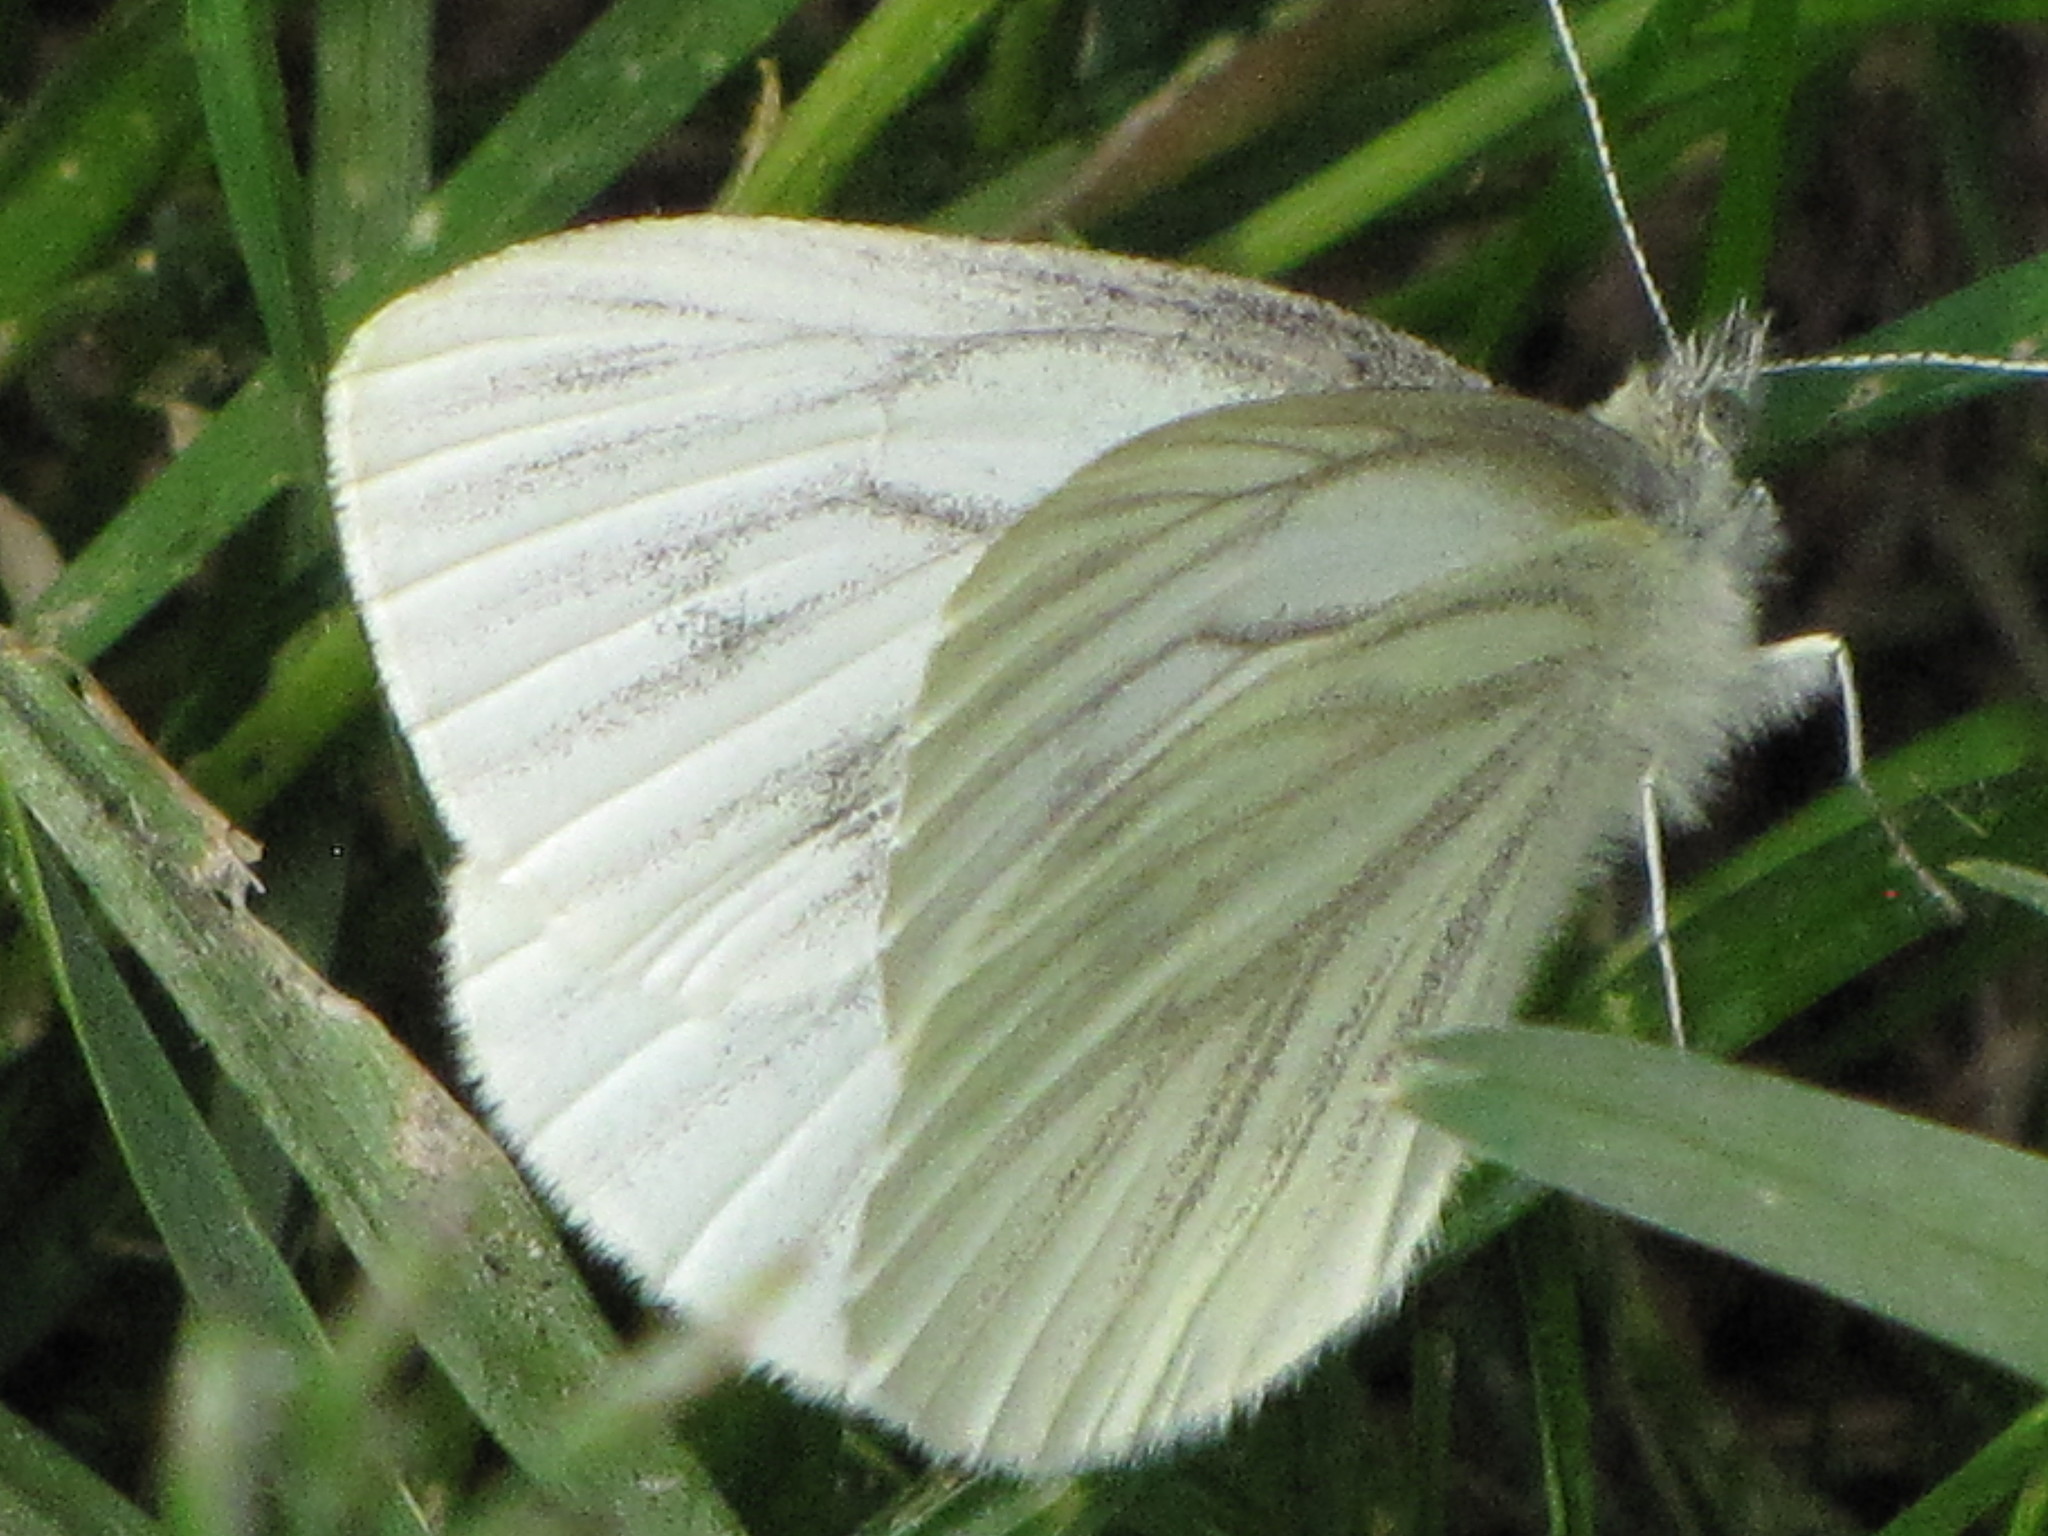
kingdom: Animalia
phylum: Arthropoda
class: Insecta
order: Lepidoptera
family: Pieridae
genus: Pieris
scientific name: Pieris marginalis
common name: Margined white
